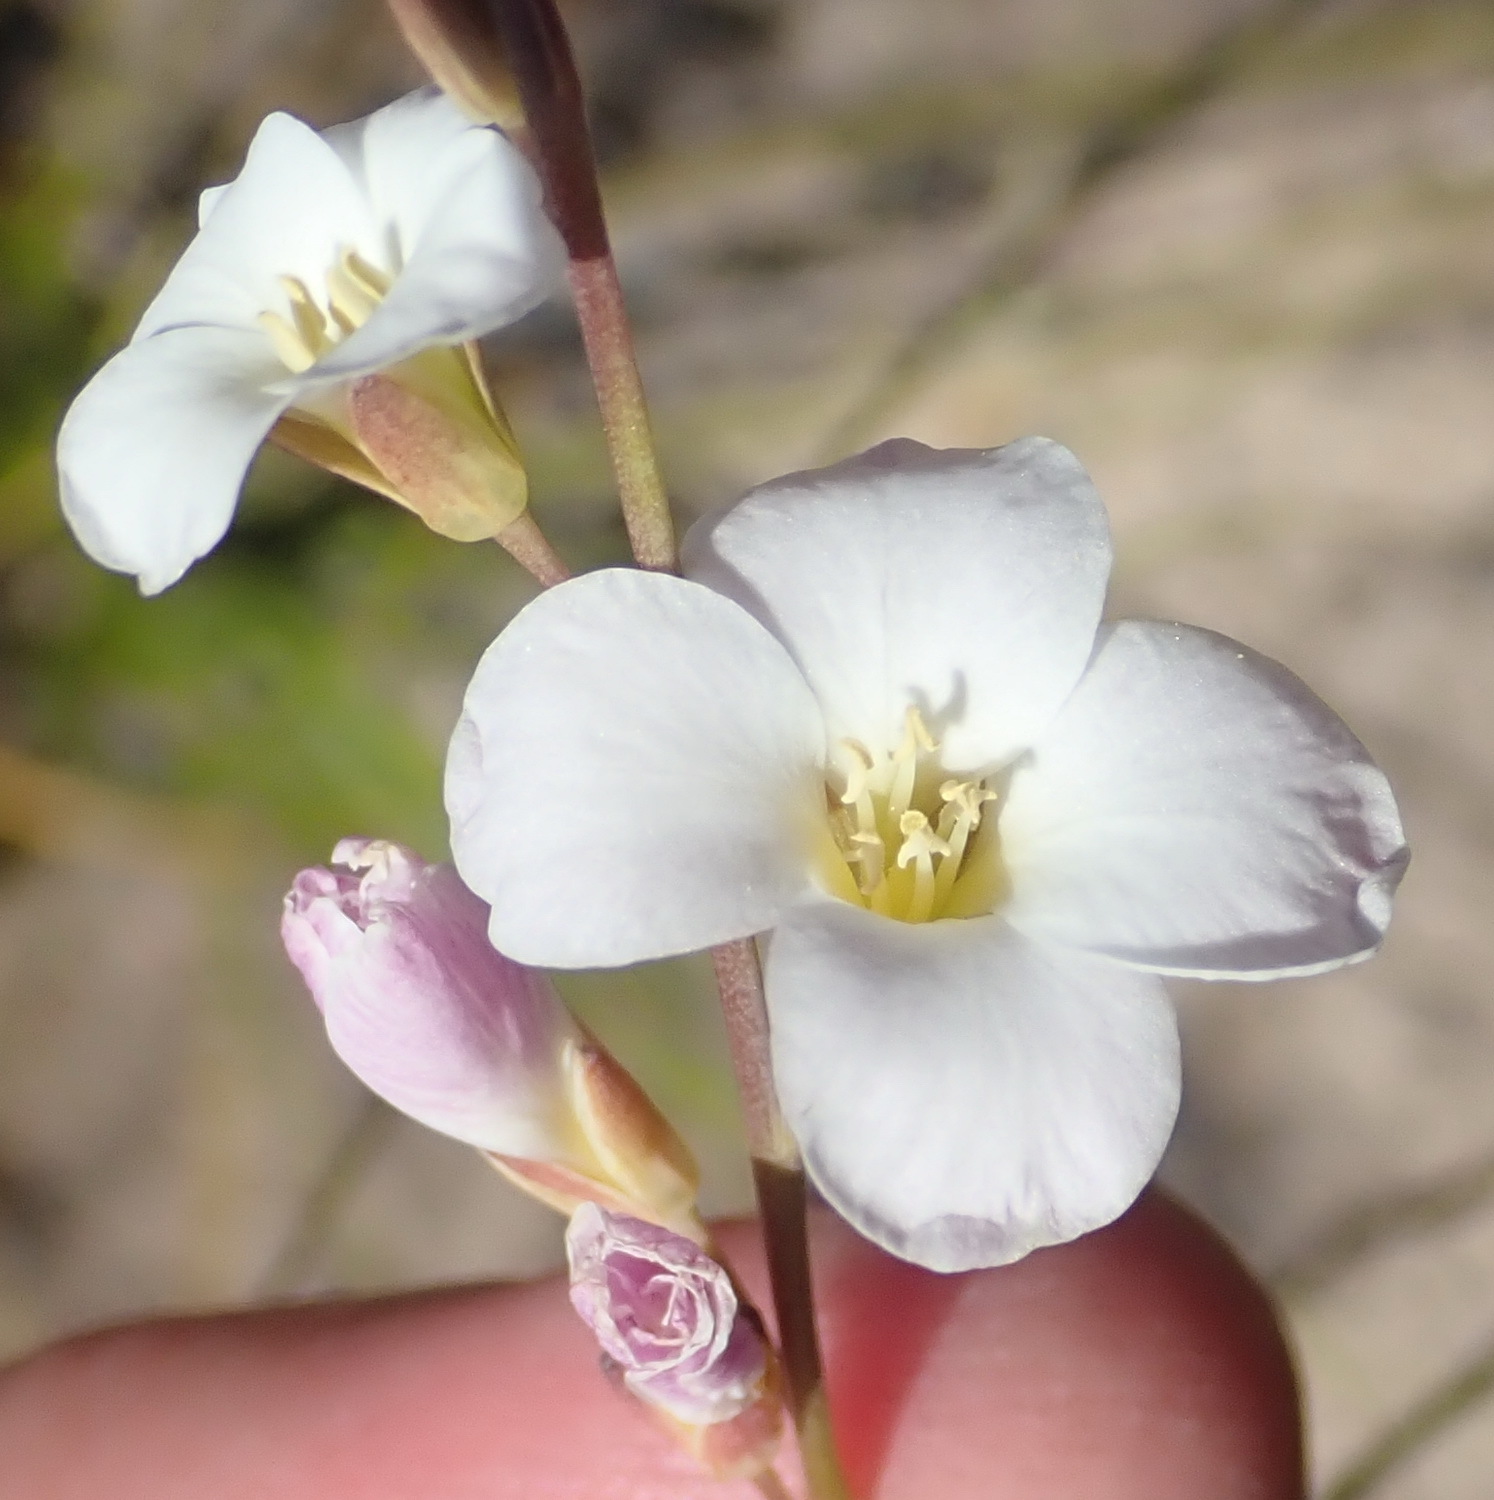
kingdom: Plantae
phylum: Tracheophyta
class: Magnoliopsida
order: Brassicales
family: Brassicaceae
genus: Heliophila
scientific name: Heliophila glauca
